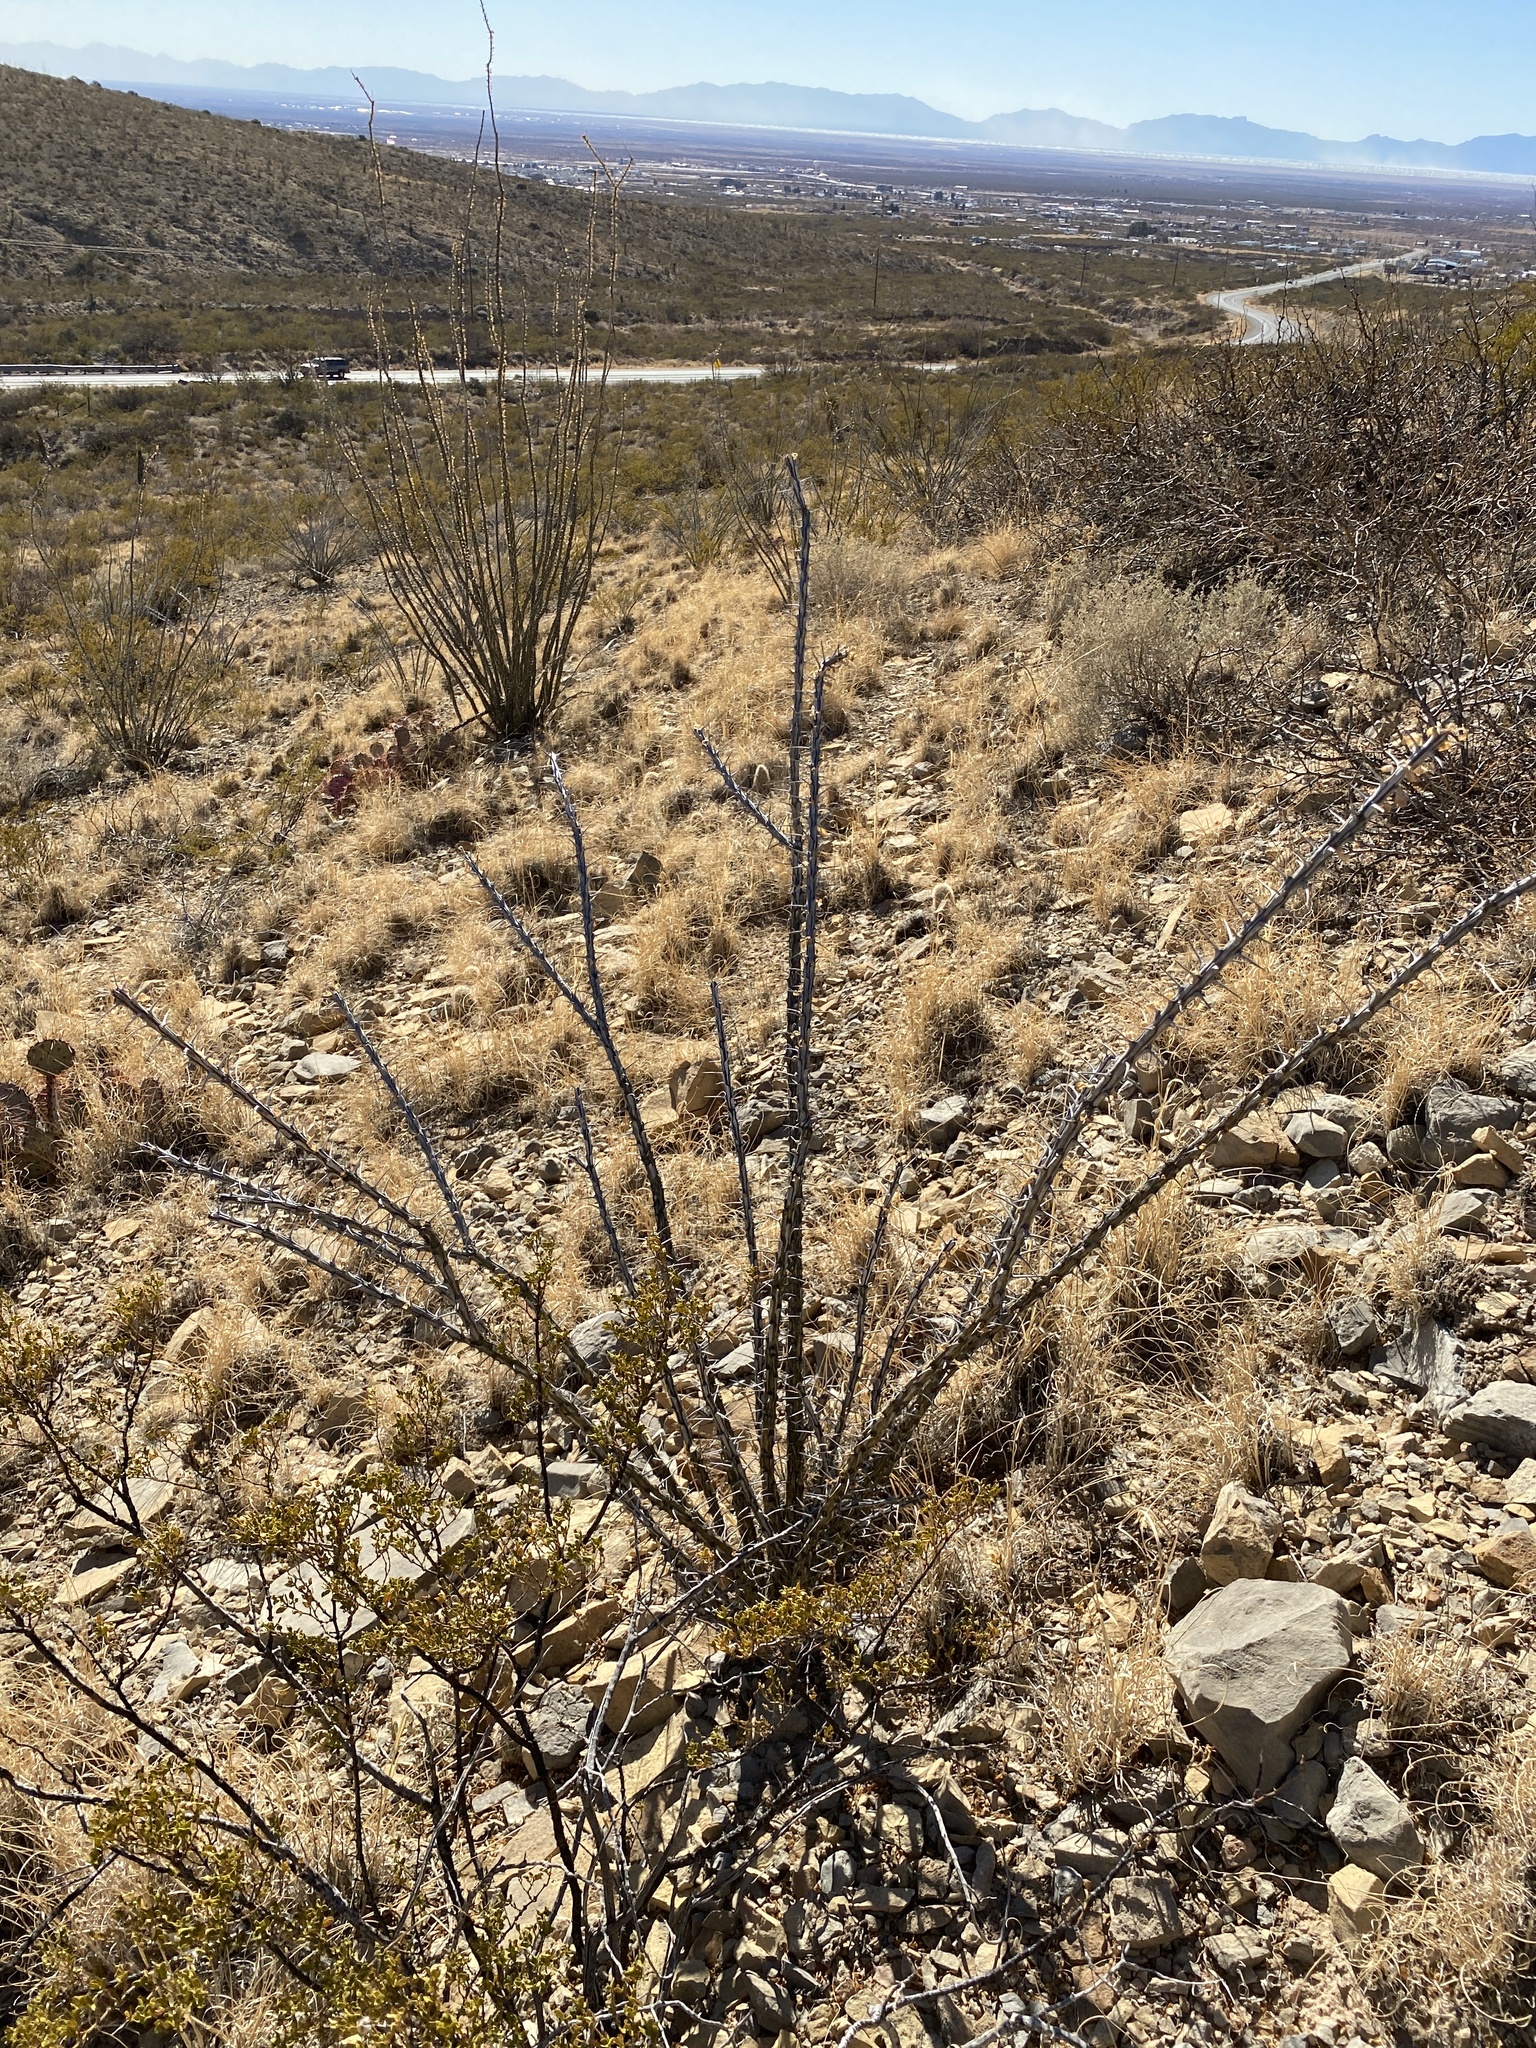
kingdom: Plantae
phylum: Tracheophyta
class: Magnoliopsida
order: Ericales
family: Fouquieriaceae
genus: Fouquieria
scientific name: Fouquieria splendens
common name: Vine-cactus
